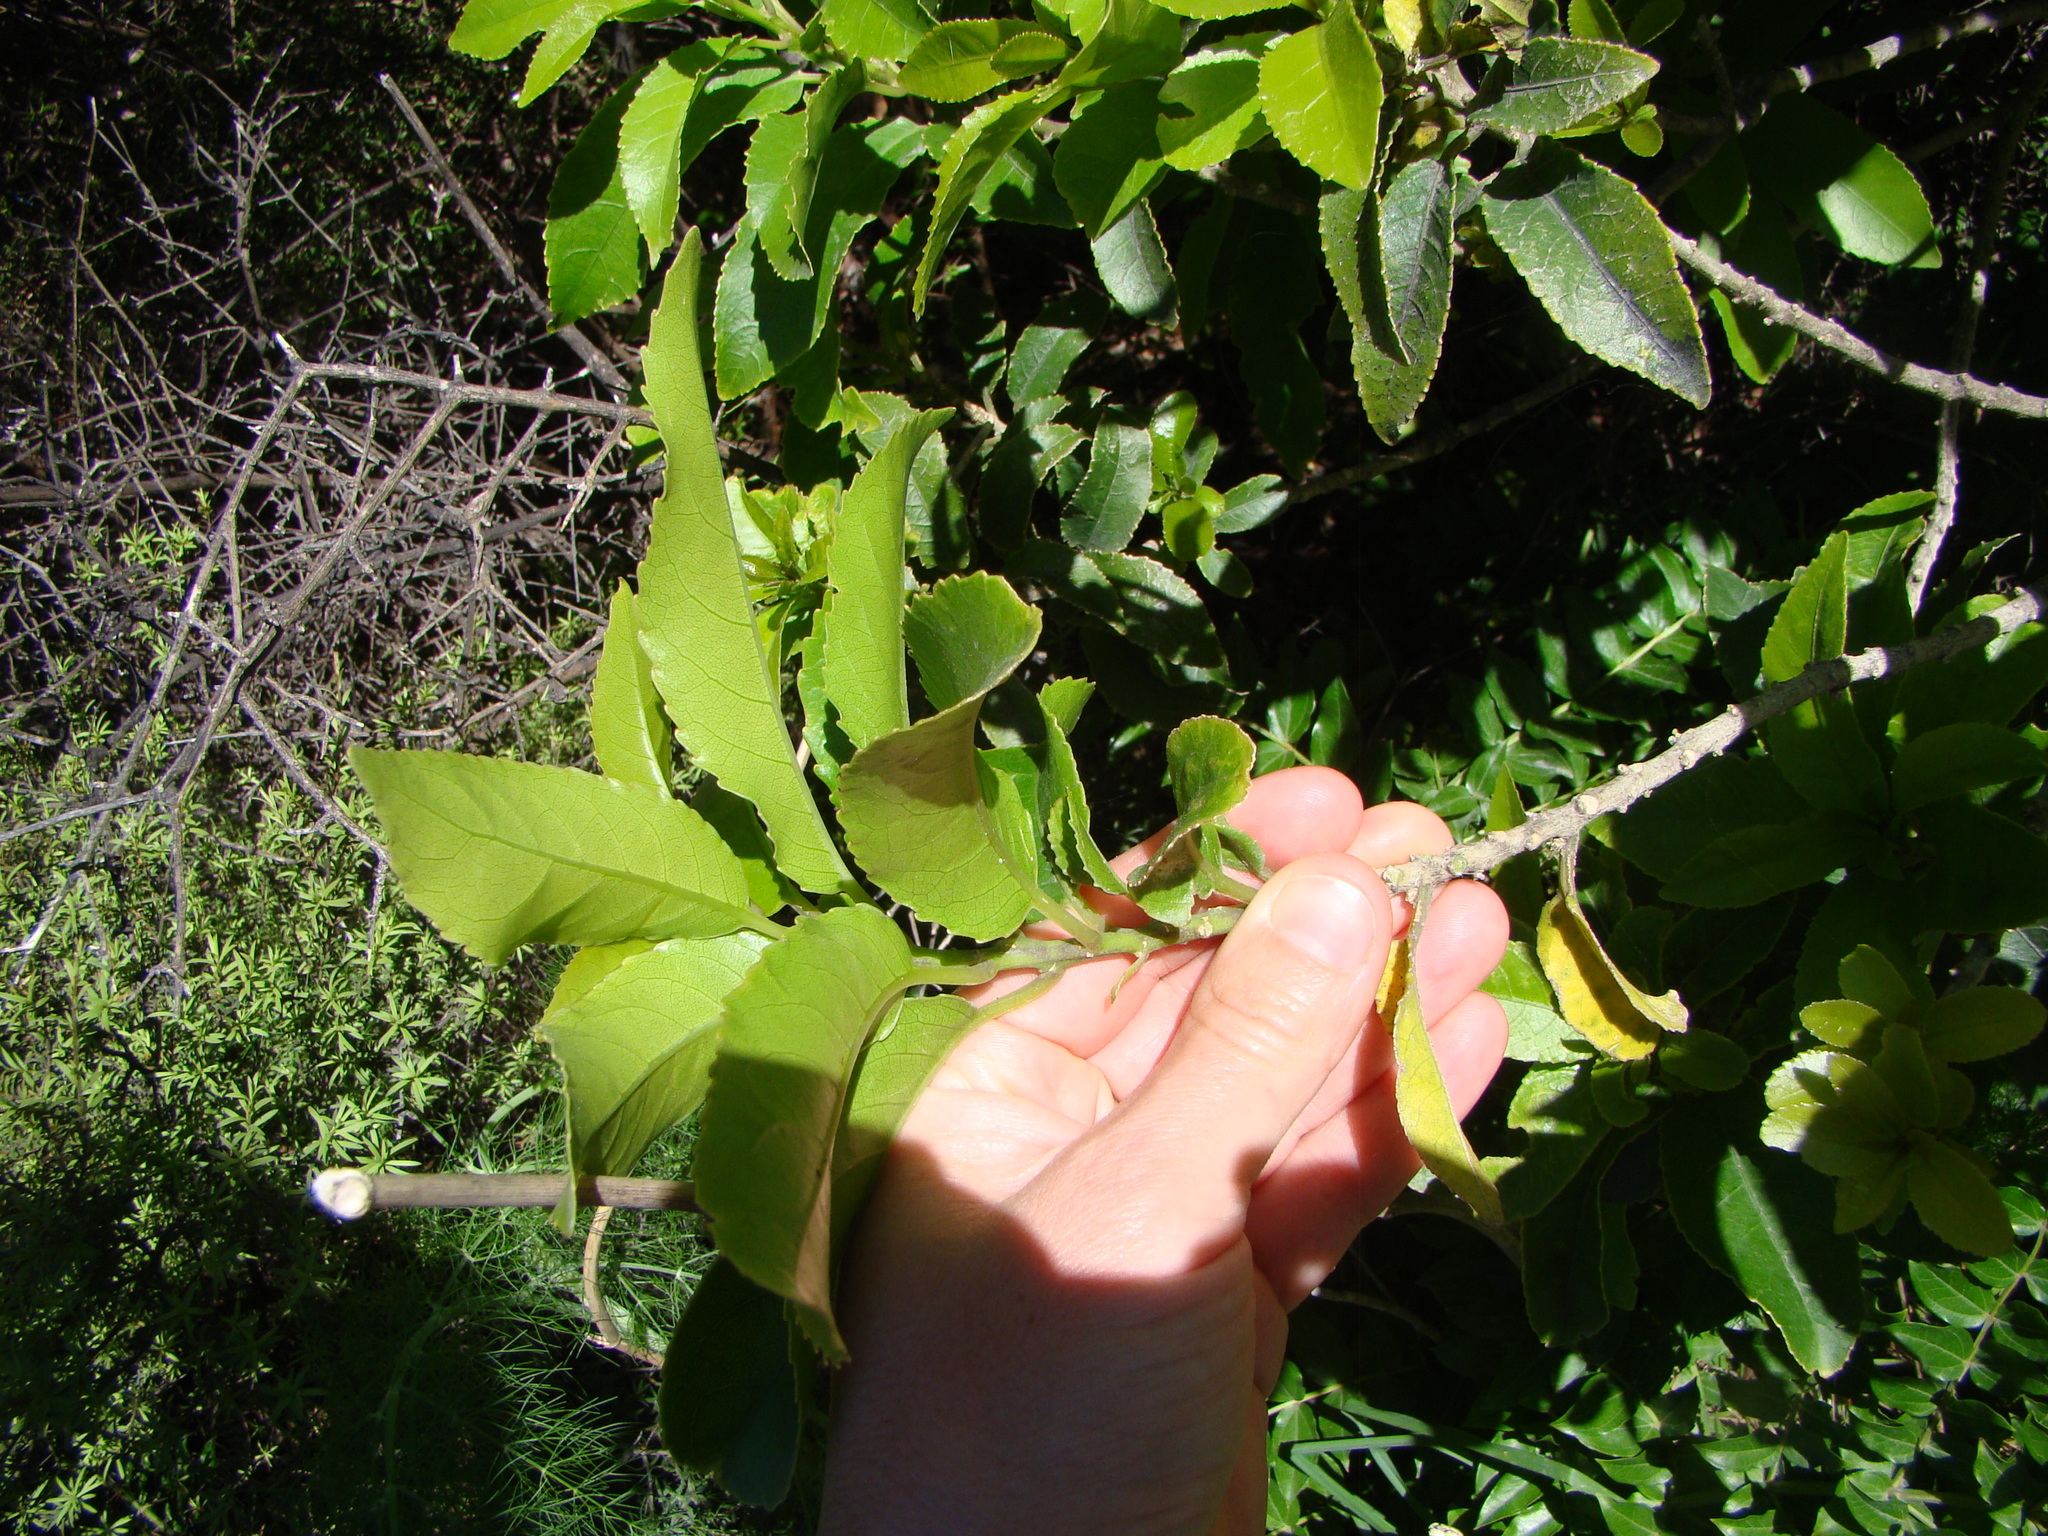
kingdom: Plantae
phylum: Tracheophyta
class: Magnoliopsida
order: Malpighiales
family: Violaceae
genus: Melicytus
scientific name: Melicytus ramiflorus
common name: Mahoe
